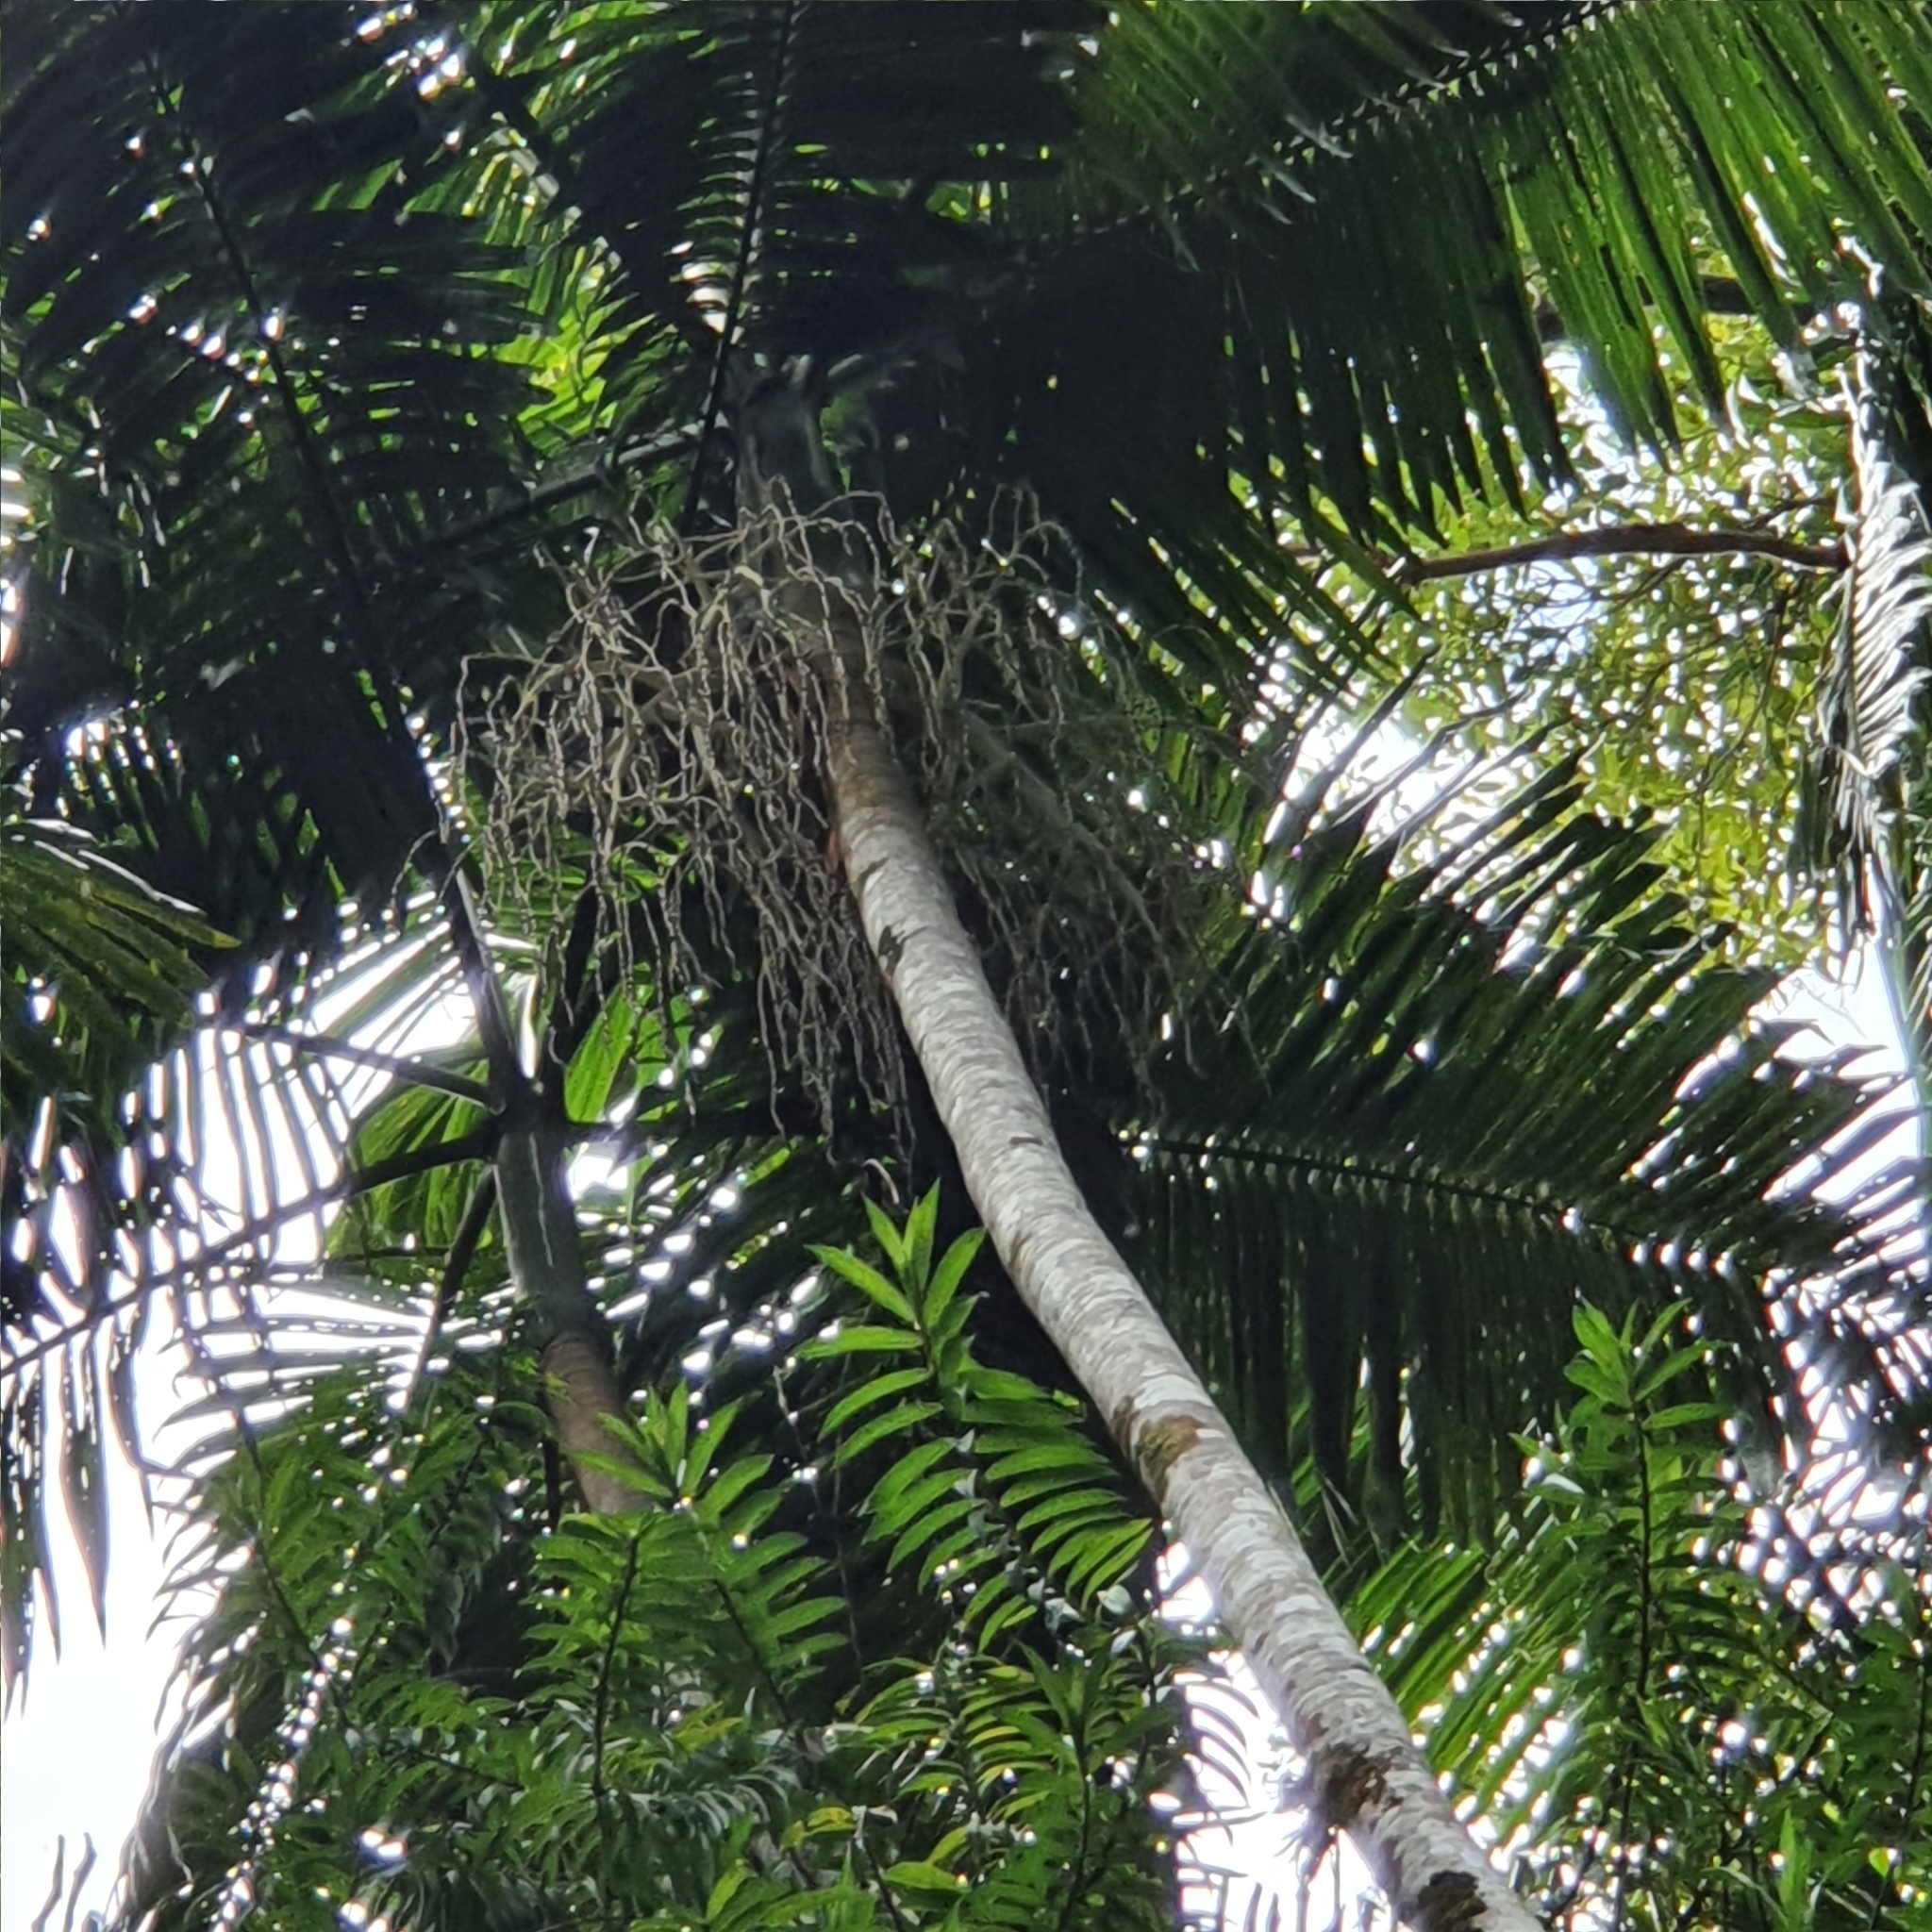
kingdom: Plantae
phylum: Tracheophyta
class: Liliopsida
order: Arecales
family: Arecaceae
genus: Archontophoenix
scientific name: Archontophoenix cunninghamiana
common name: Piccabeen bangalow palm
